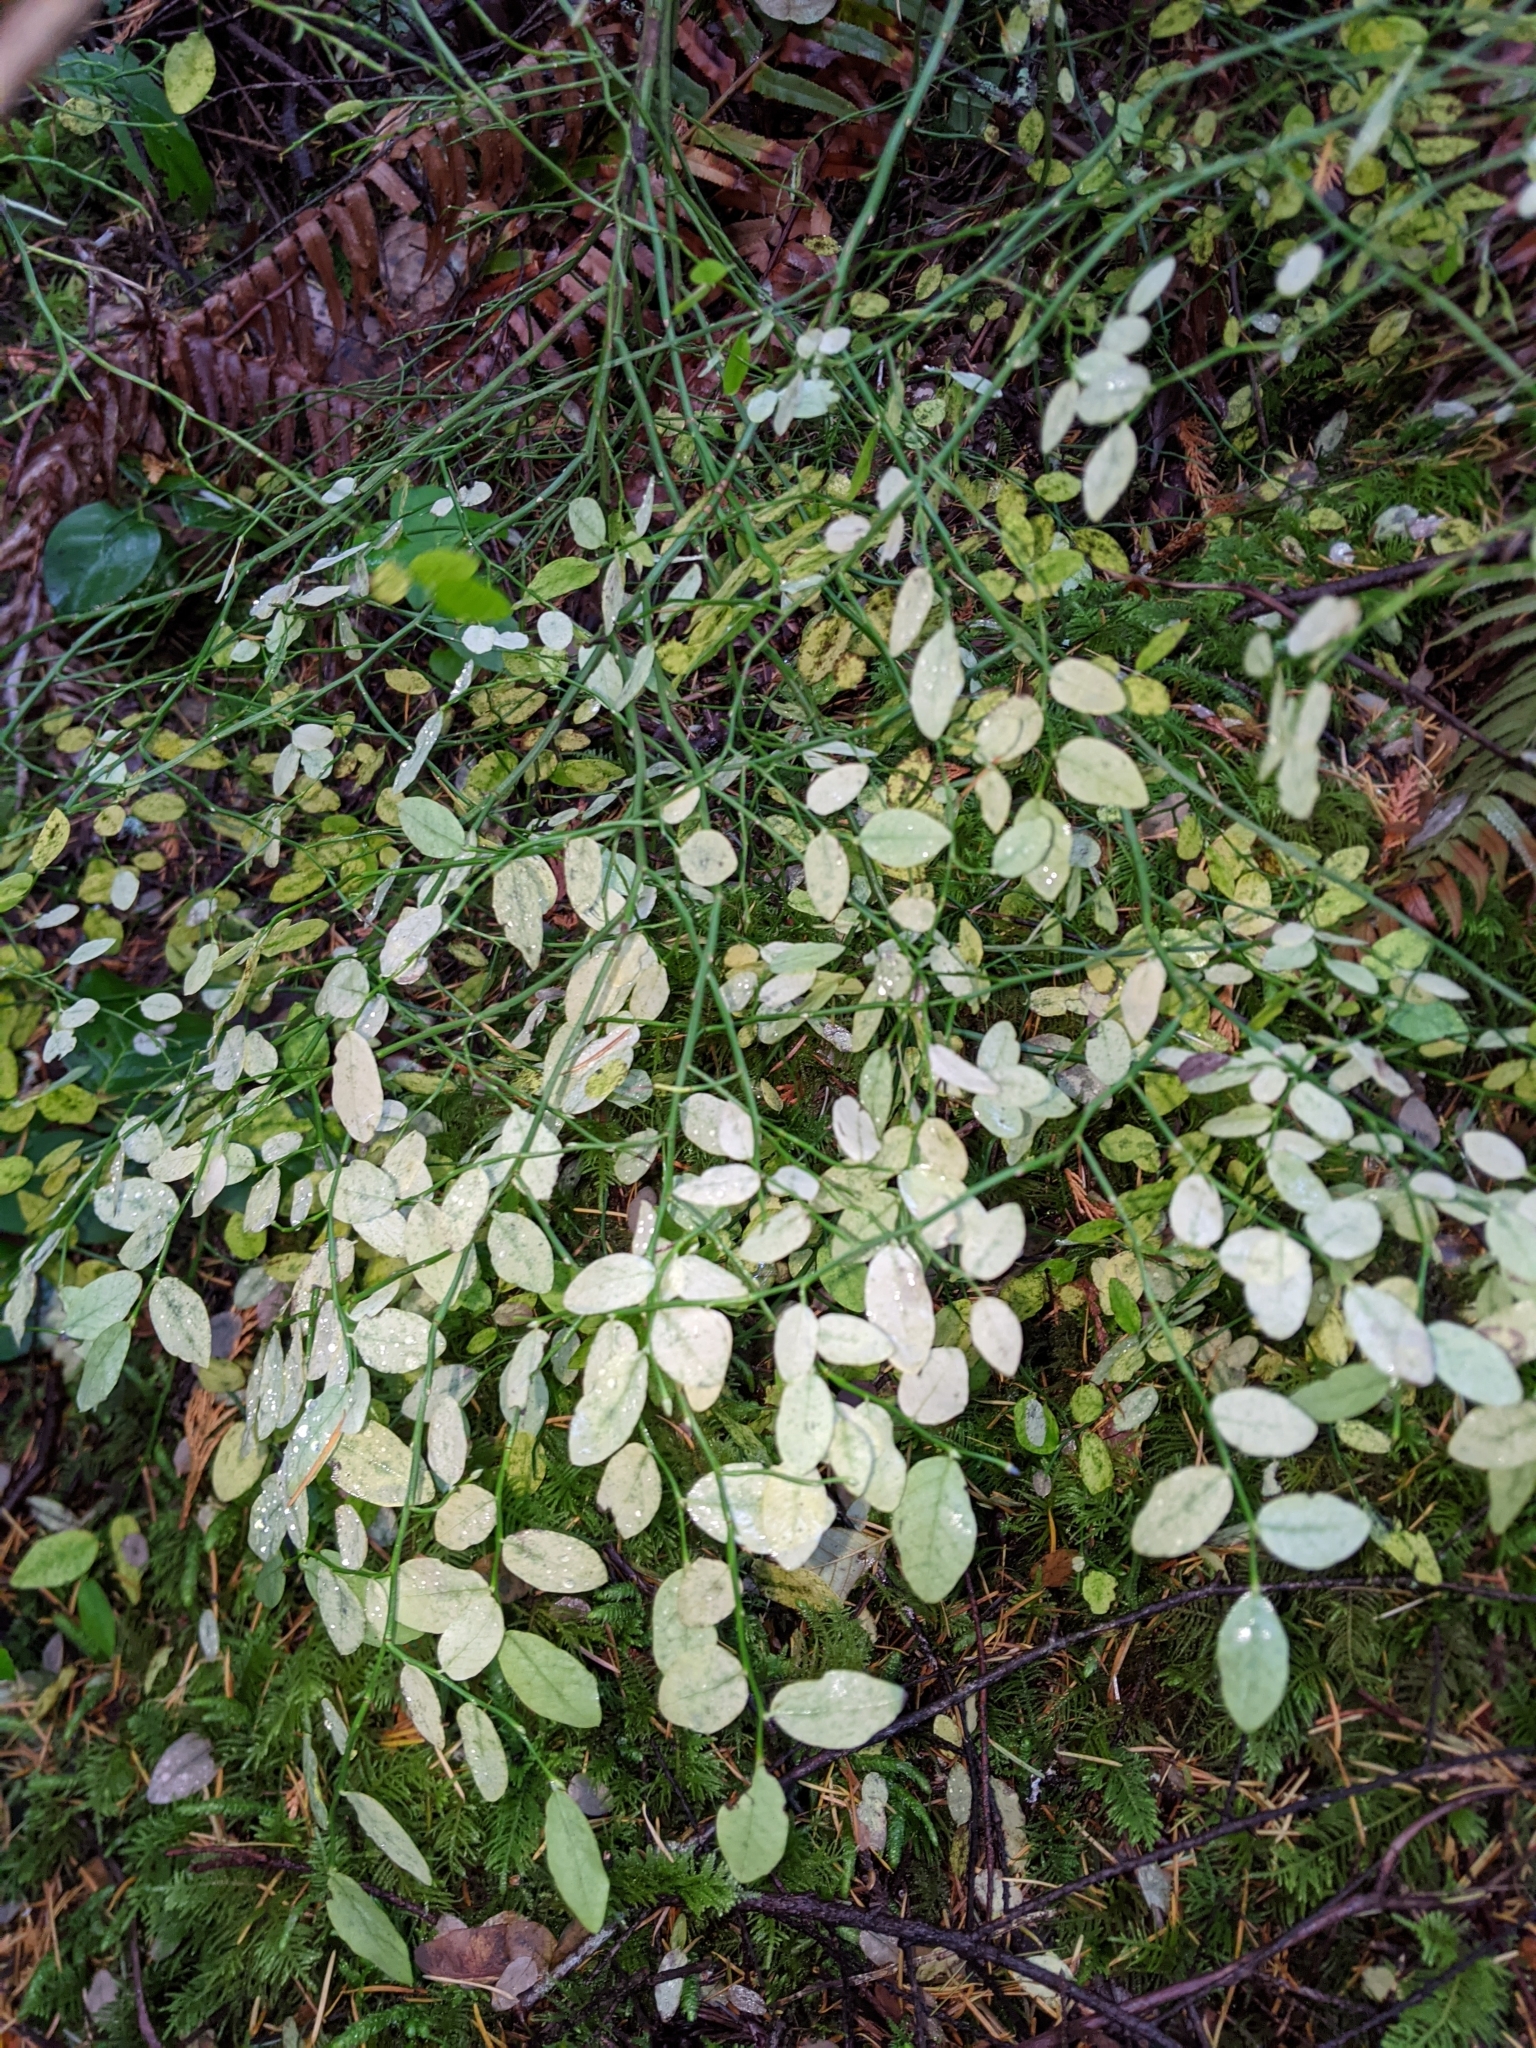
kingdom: Plantae
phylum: Tracheophyta
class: Magnoliopsida
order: Ericales
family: Ericaceae
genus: Vaccinium
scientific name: Vaccinium parvifolium
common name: Red-huckleberry
